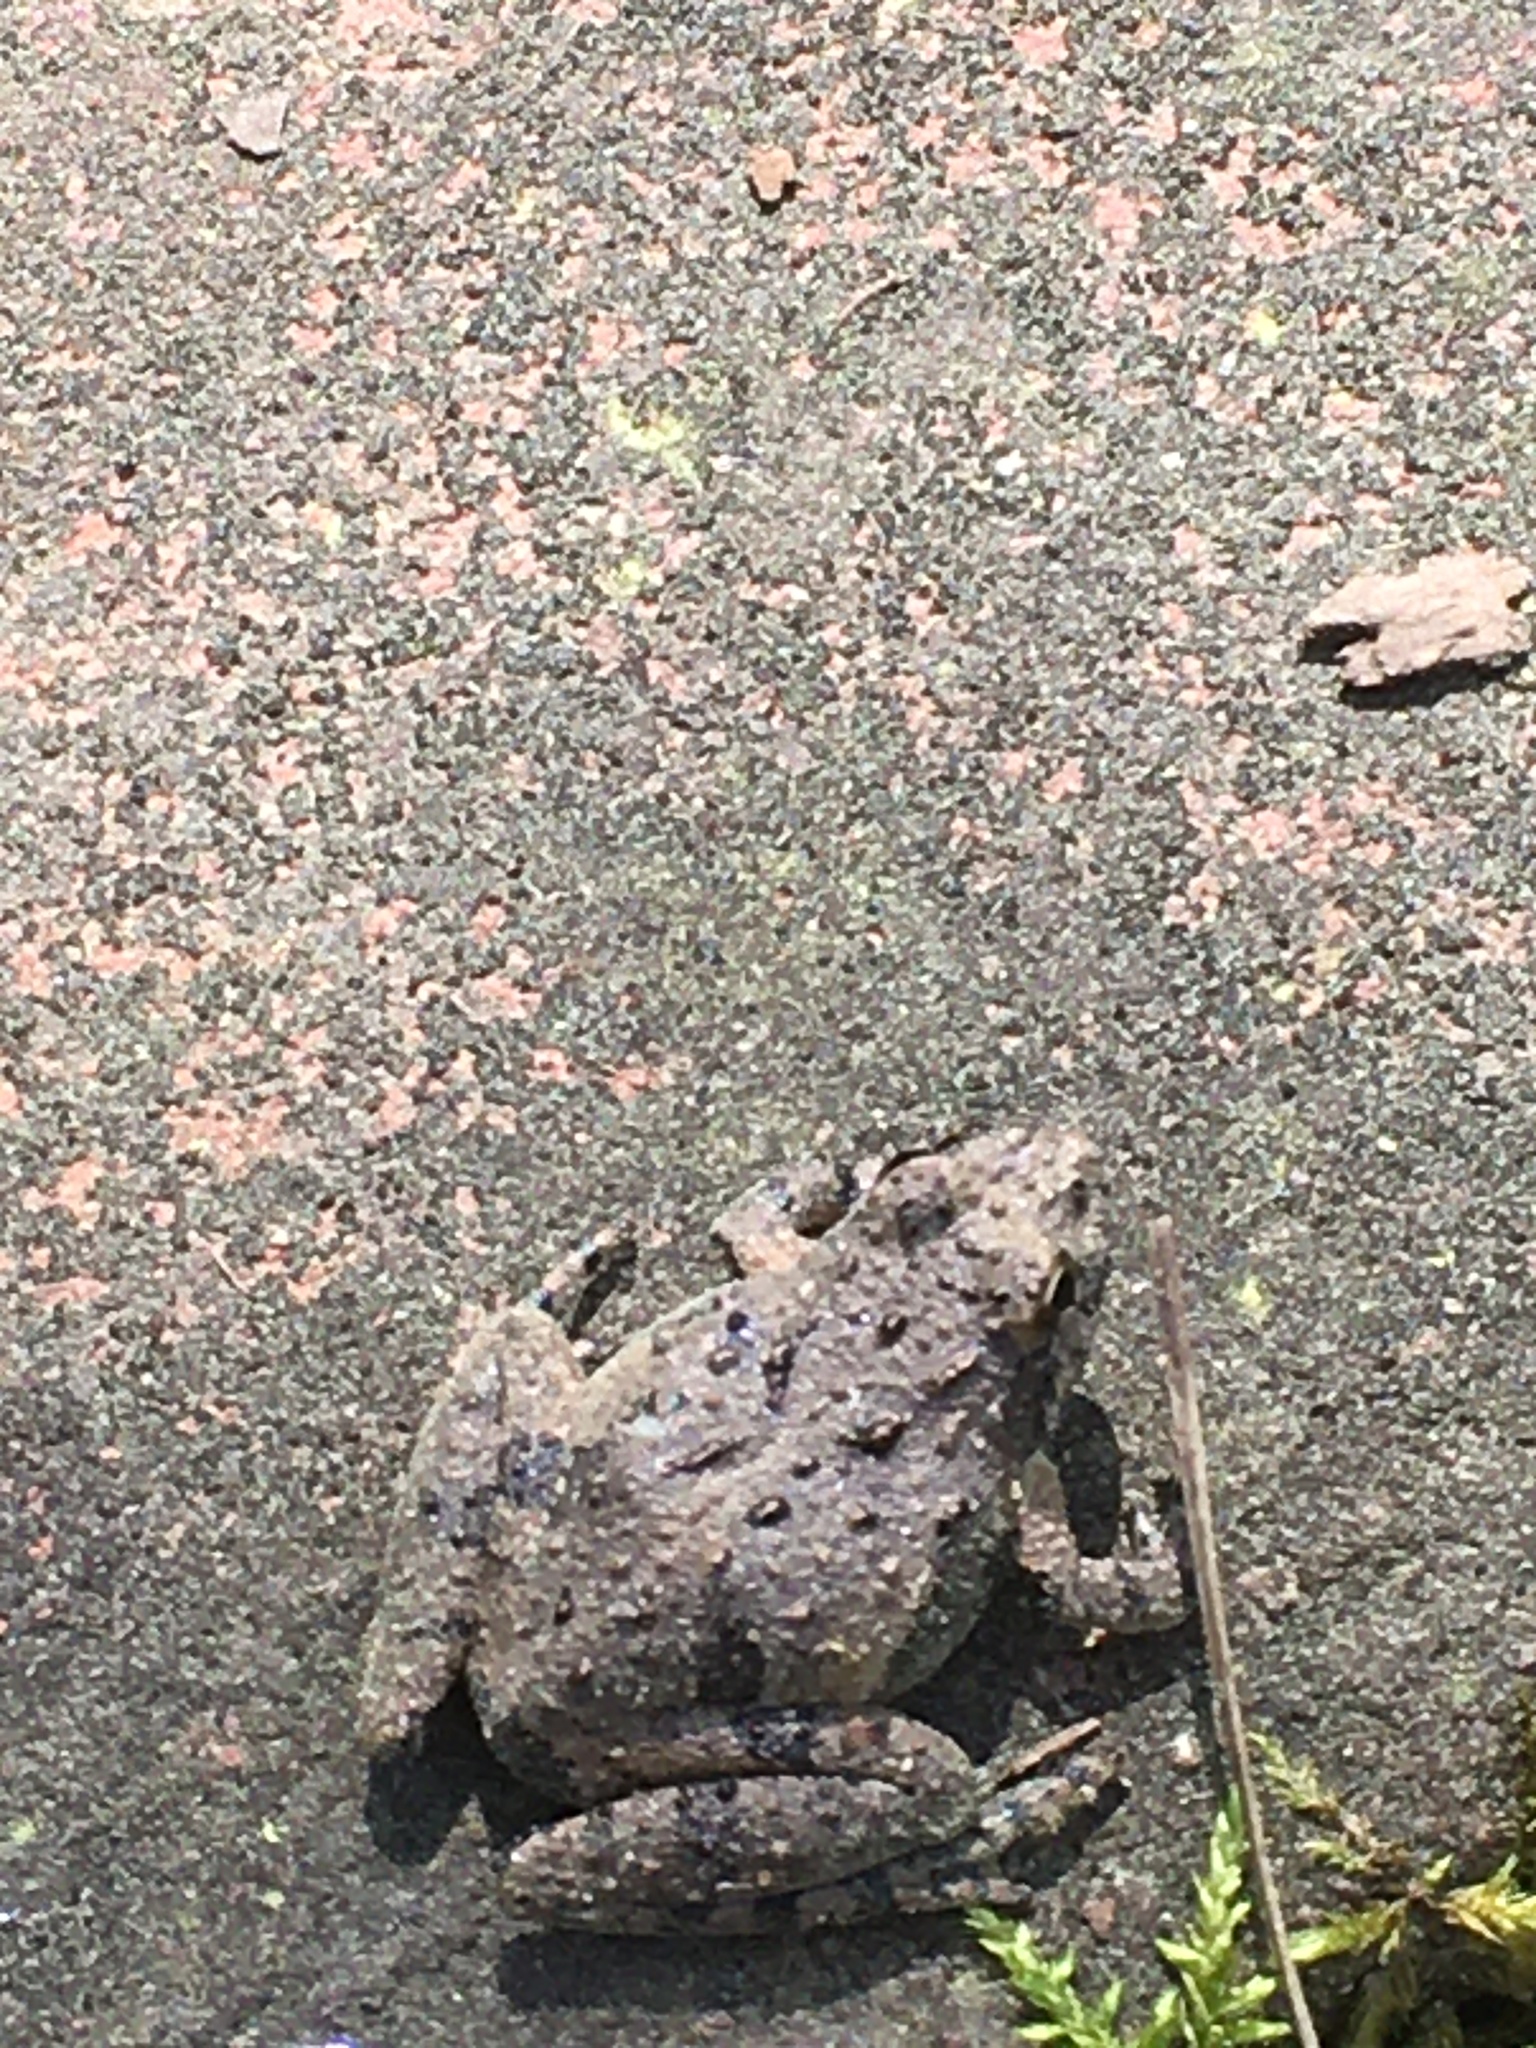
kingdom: Animalia
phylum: Chordata
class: Amphibia
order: Anura
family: Hylidae
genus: Acris
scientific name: Acris crepitans
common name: Northern cricket frog
